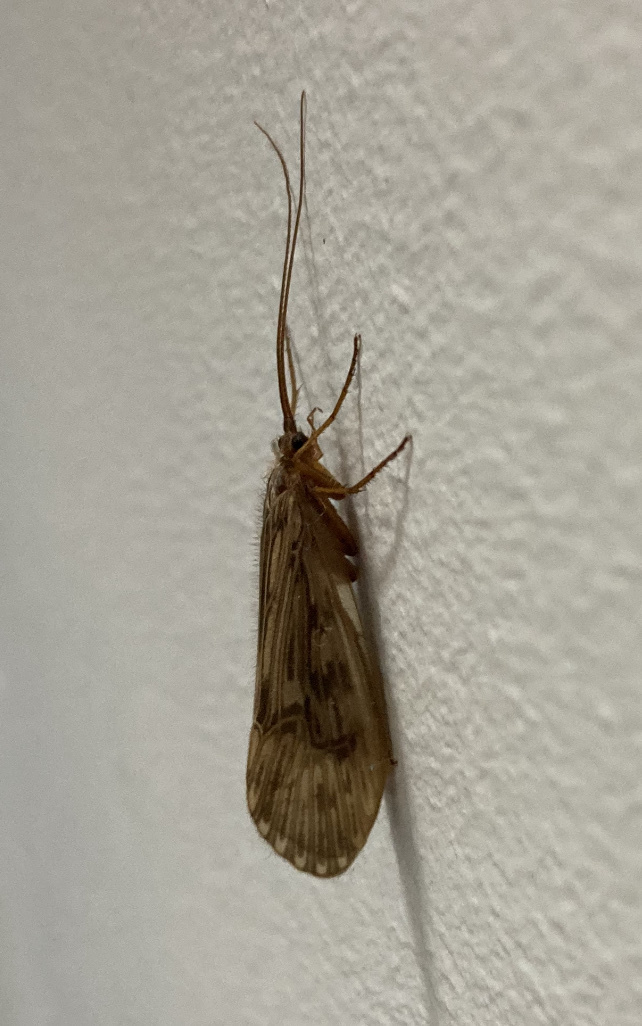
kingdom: Animalia
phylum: Arthropoda
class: Insecta
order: Trichoptera
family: Limnephilidae
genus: Halesus
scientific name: Halesus radiatus
